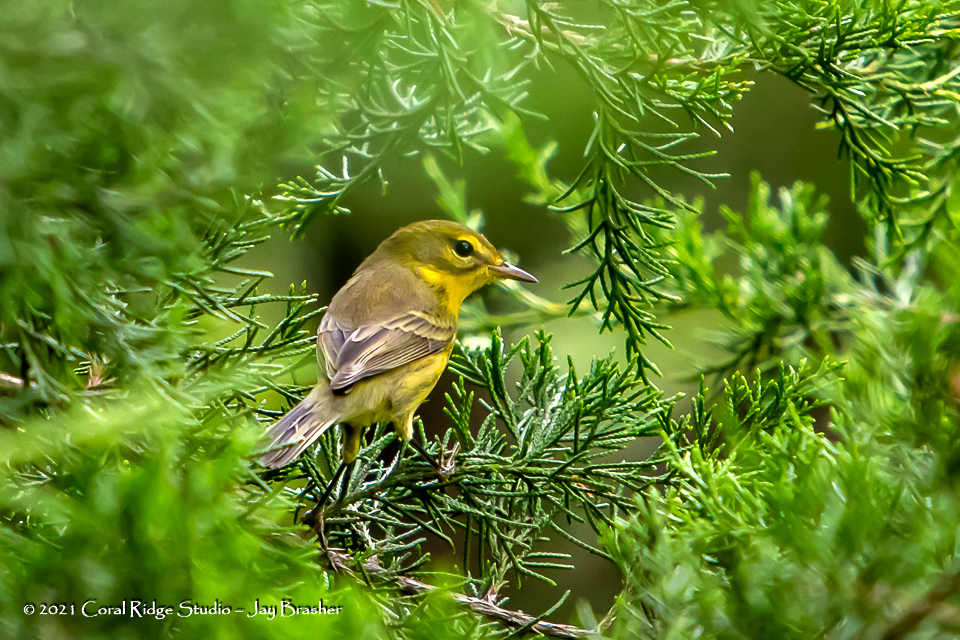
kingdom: Animalia
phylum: Chordata
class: Aves
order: Passeriformes
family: Parulidae
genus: Setophaga
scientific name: Setophaga discolor
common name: Prairie warbler
